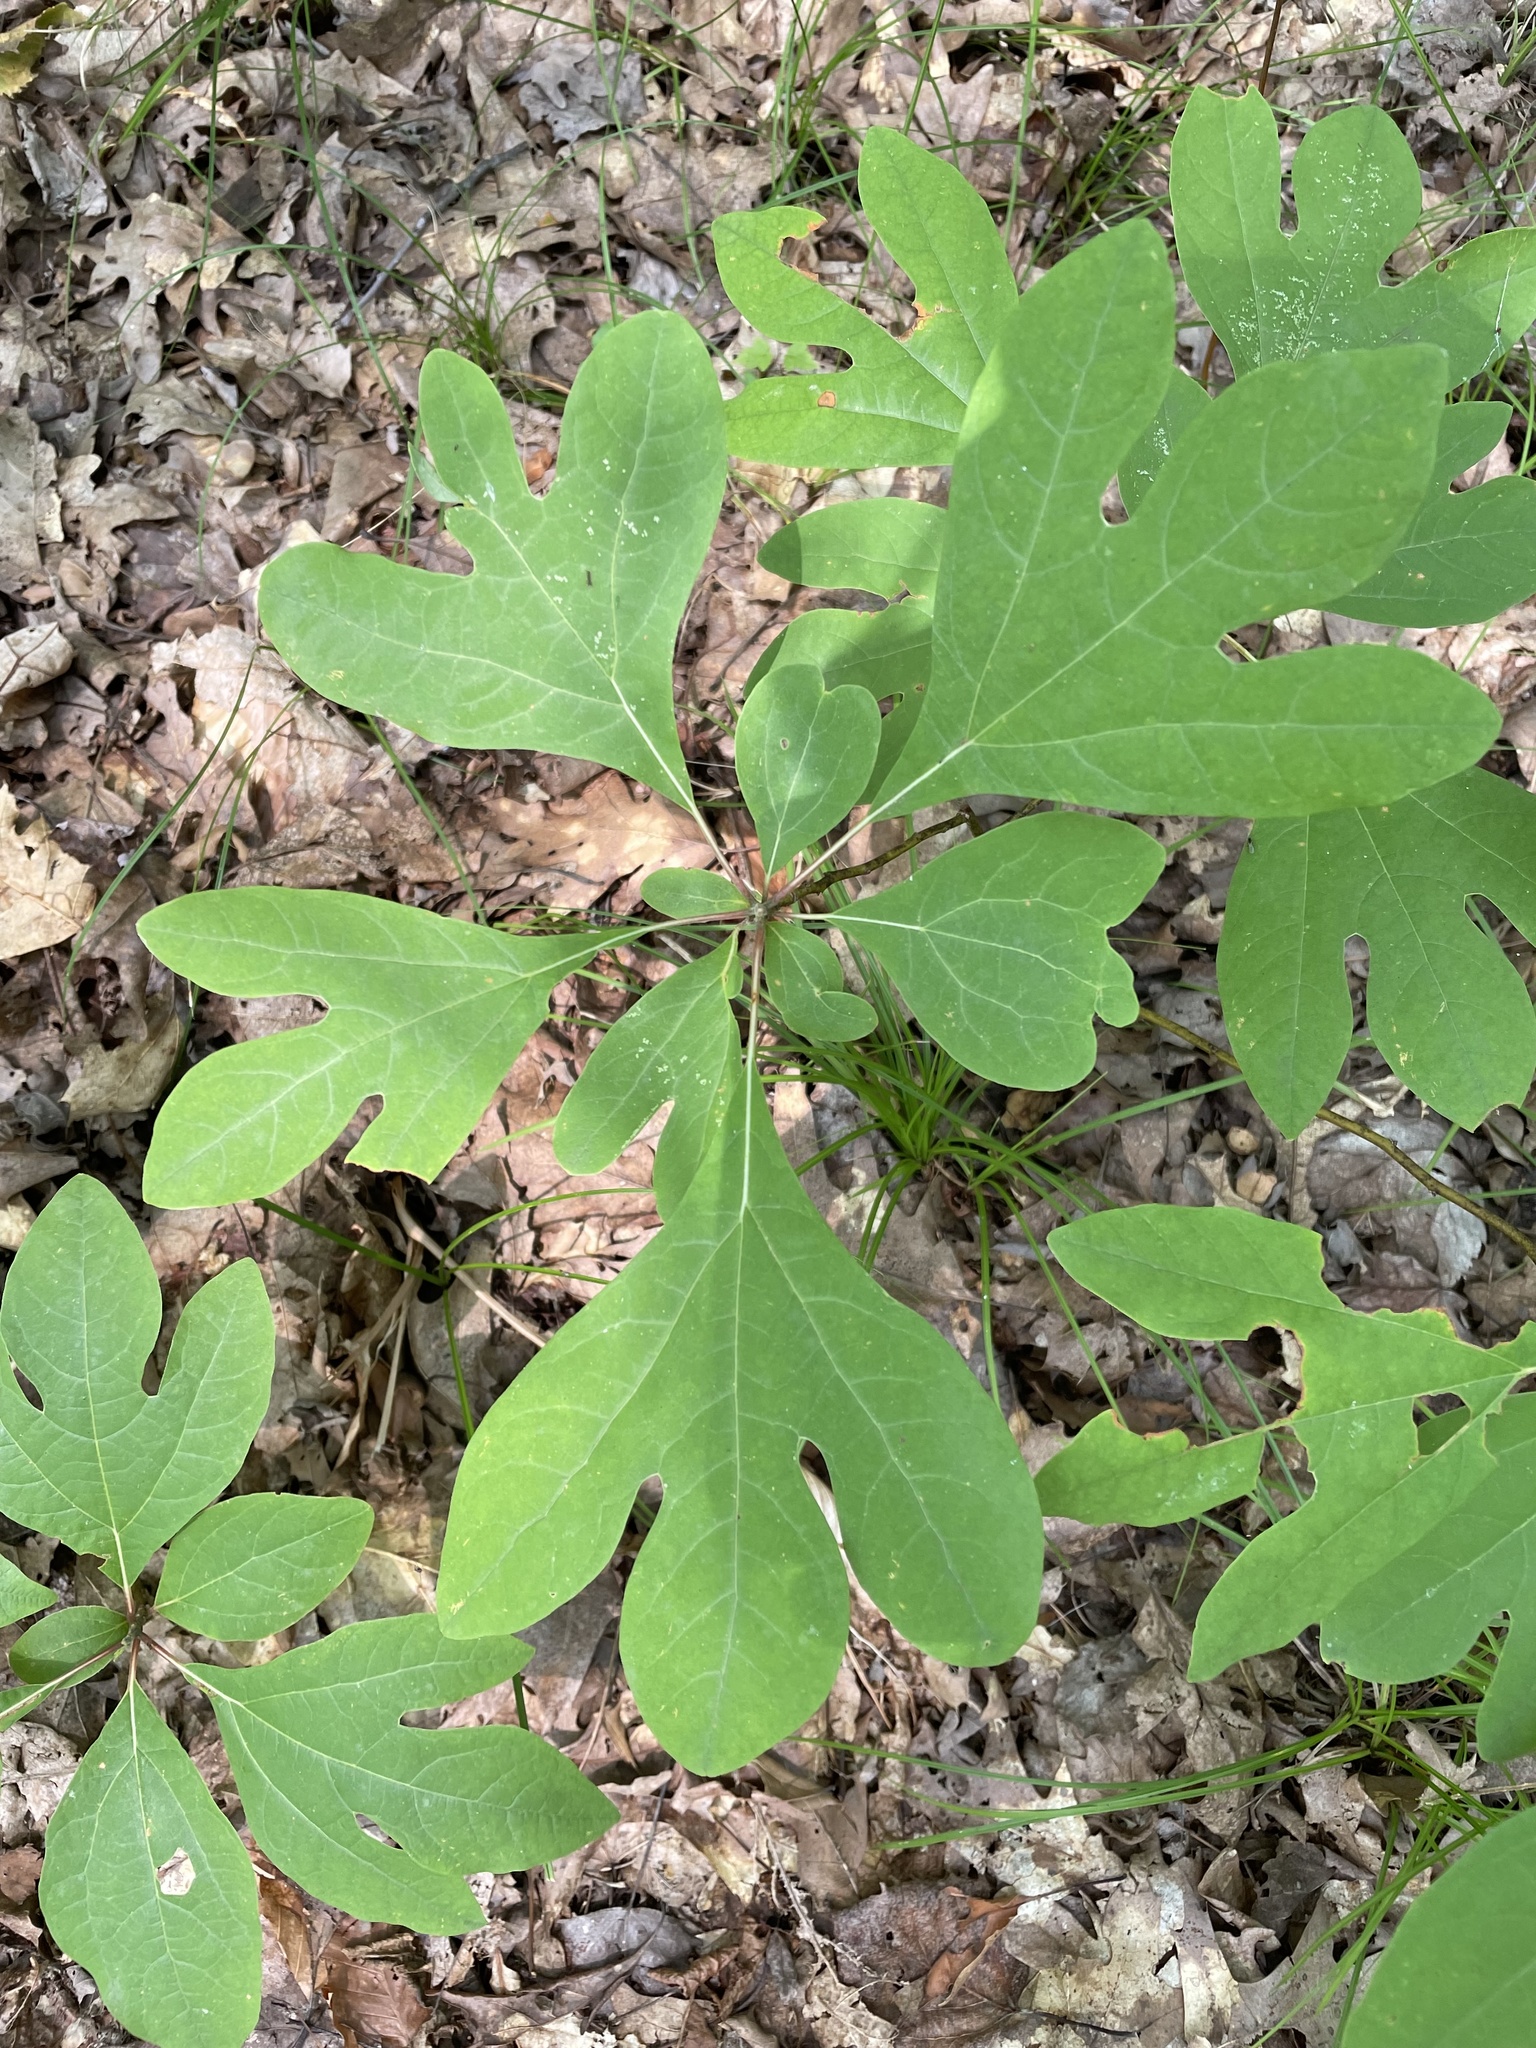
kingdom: Plantae
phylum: Tracheophyta
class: Magnoliopsida
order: Laurales
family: Lauraceae
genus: Sassafras
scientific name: Sassafras albidum
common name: Sassafras
